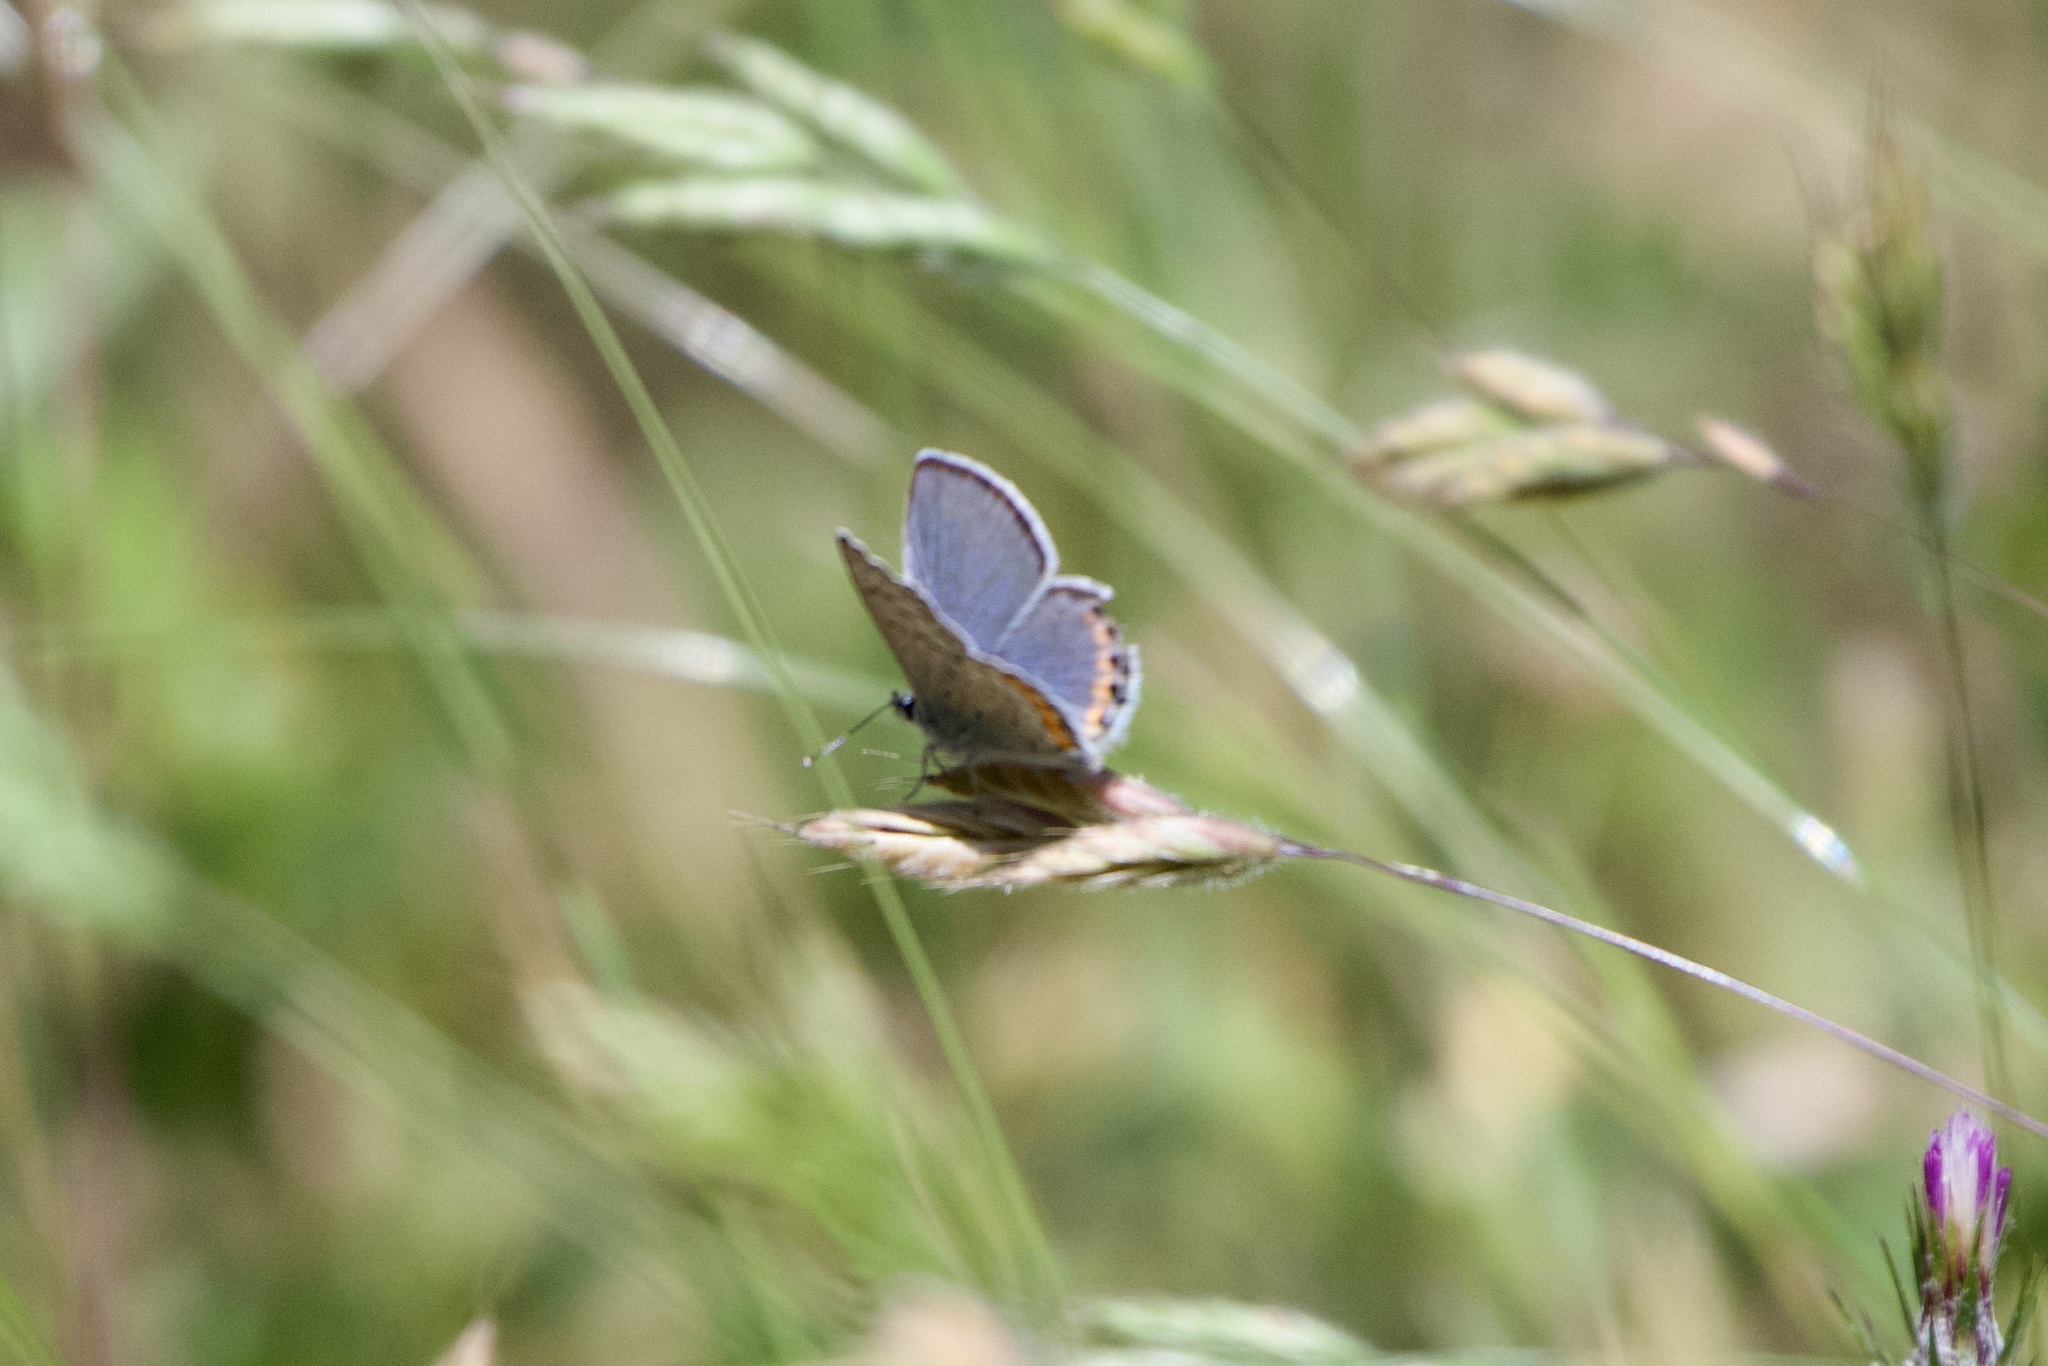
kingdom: Animalia
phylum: Arthropoda
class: Insecta
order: Lepidoptera
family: Lycaenidae
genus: Icaricia
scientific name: Icaricia acmon
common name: Acmon blue
